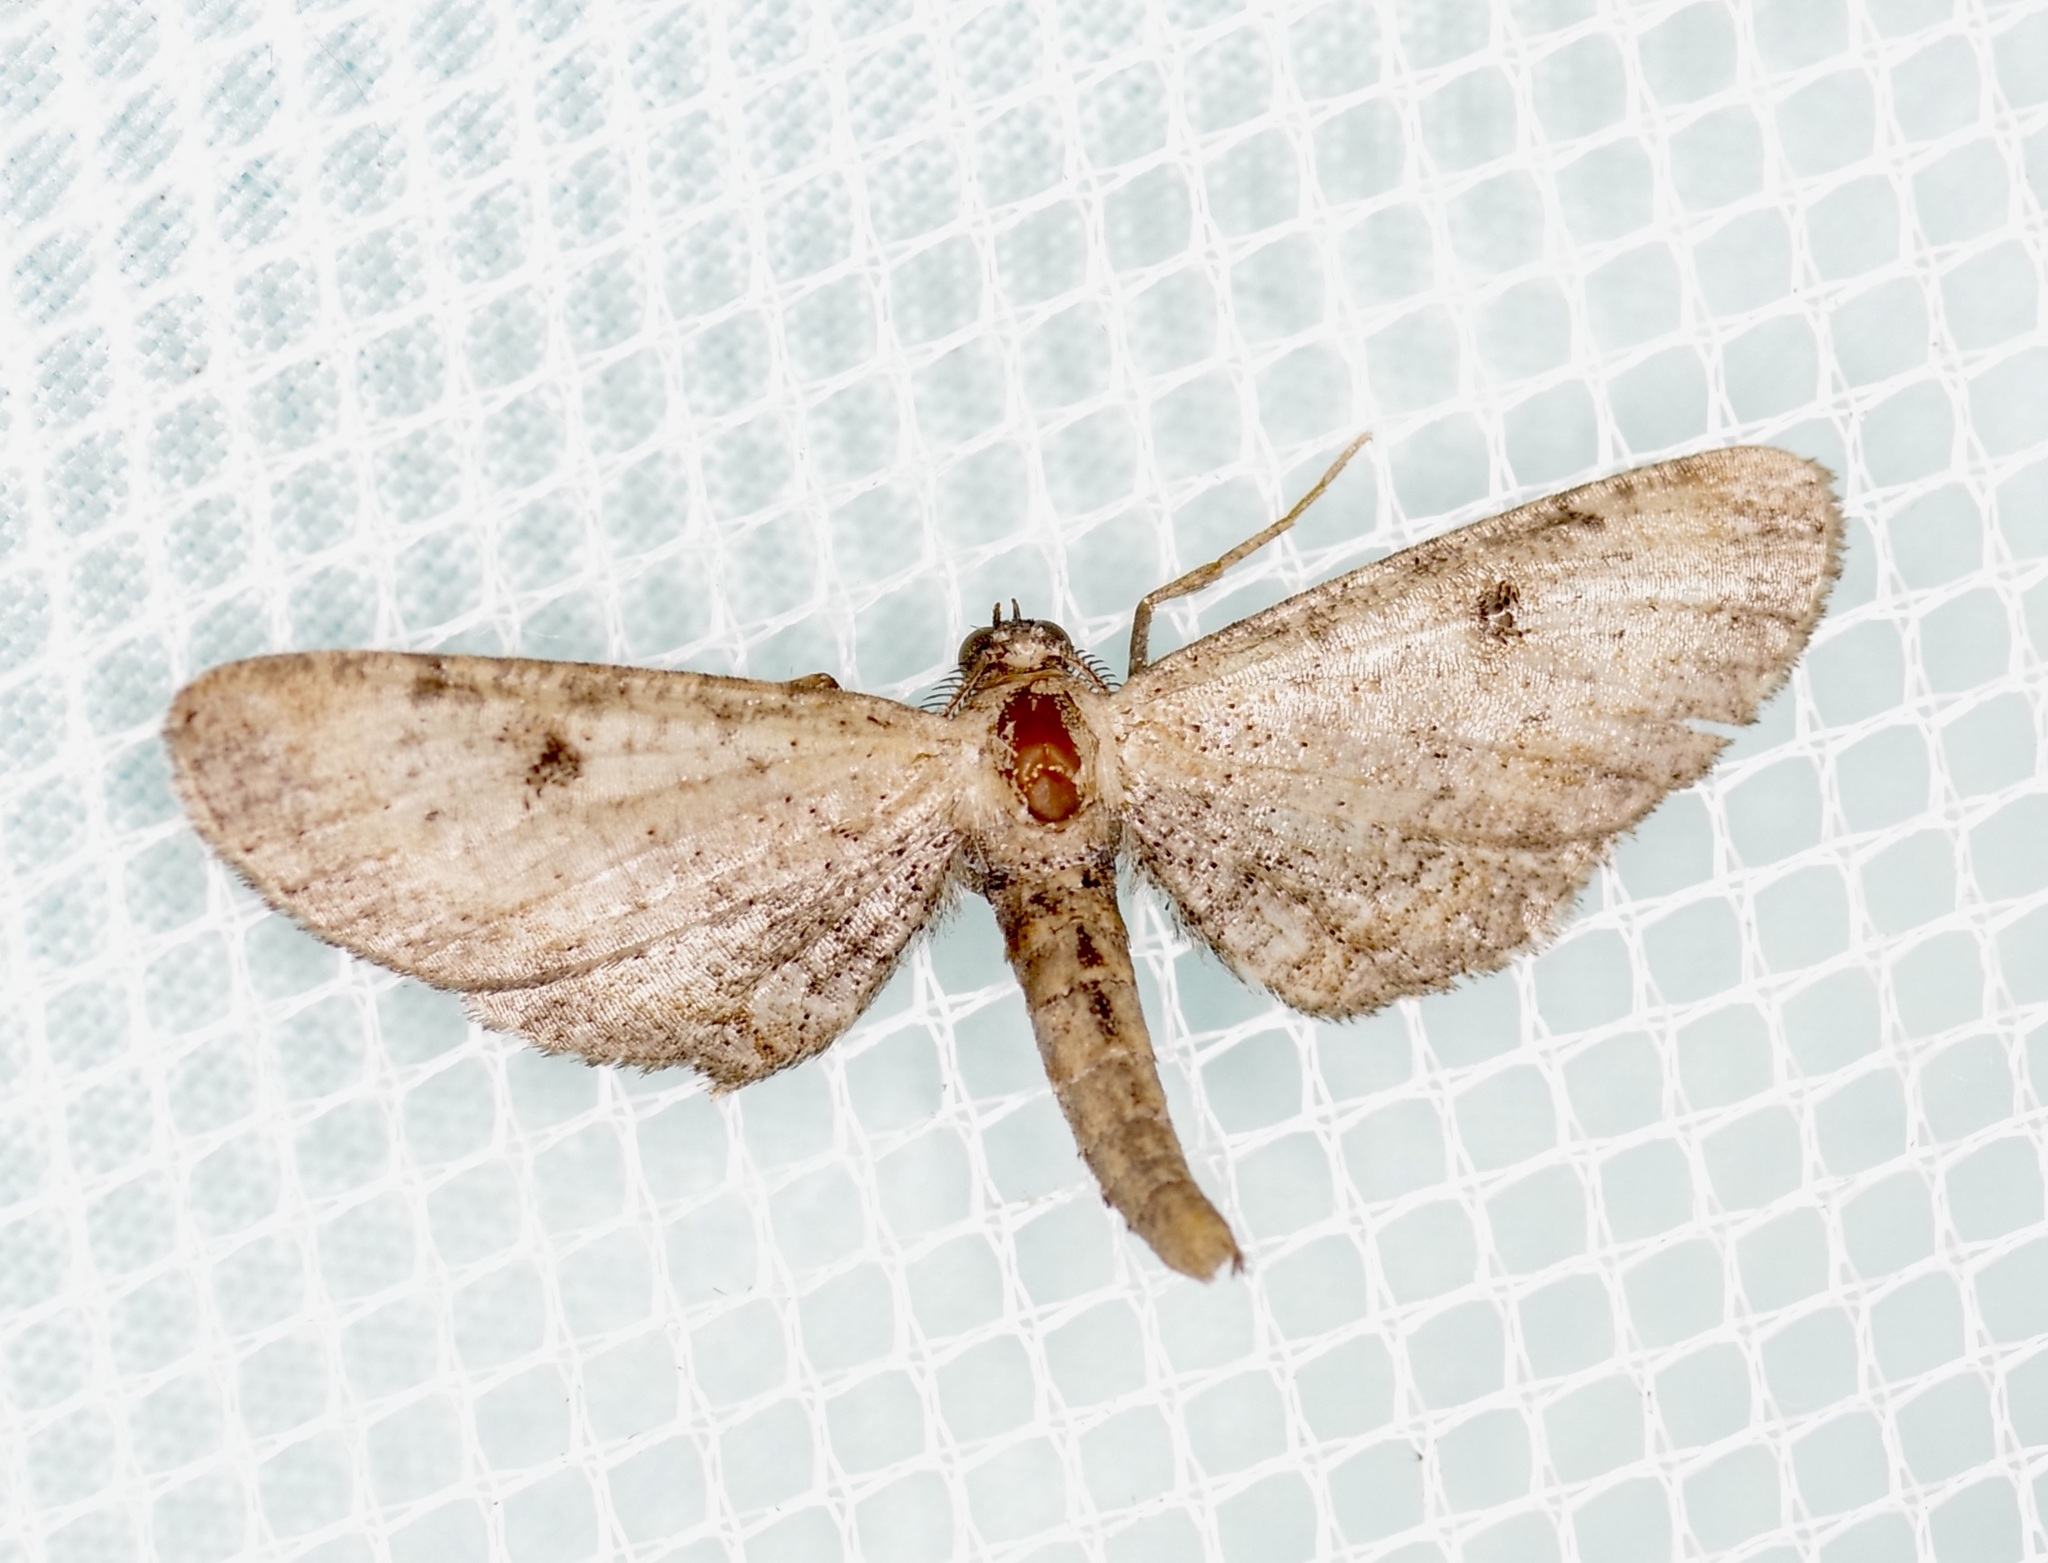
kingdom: Animalia
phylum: Arthropoda
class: Insecta
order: Lepidoptera
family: Geometridae
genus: Tornos
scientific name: Tornos scolopacinaria
